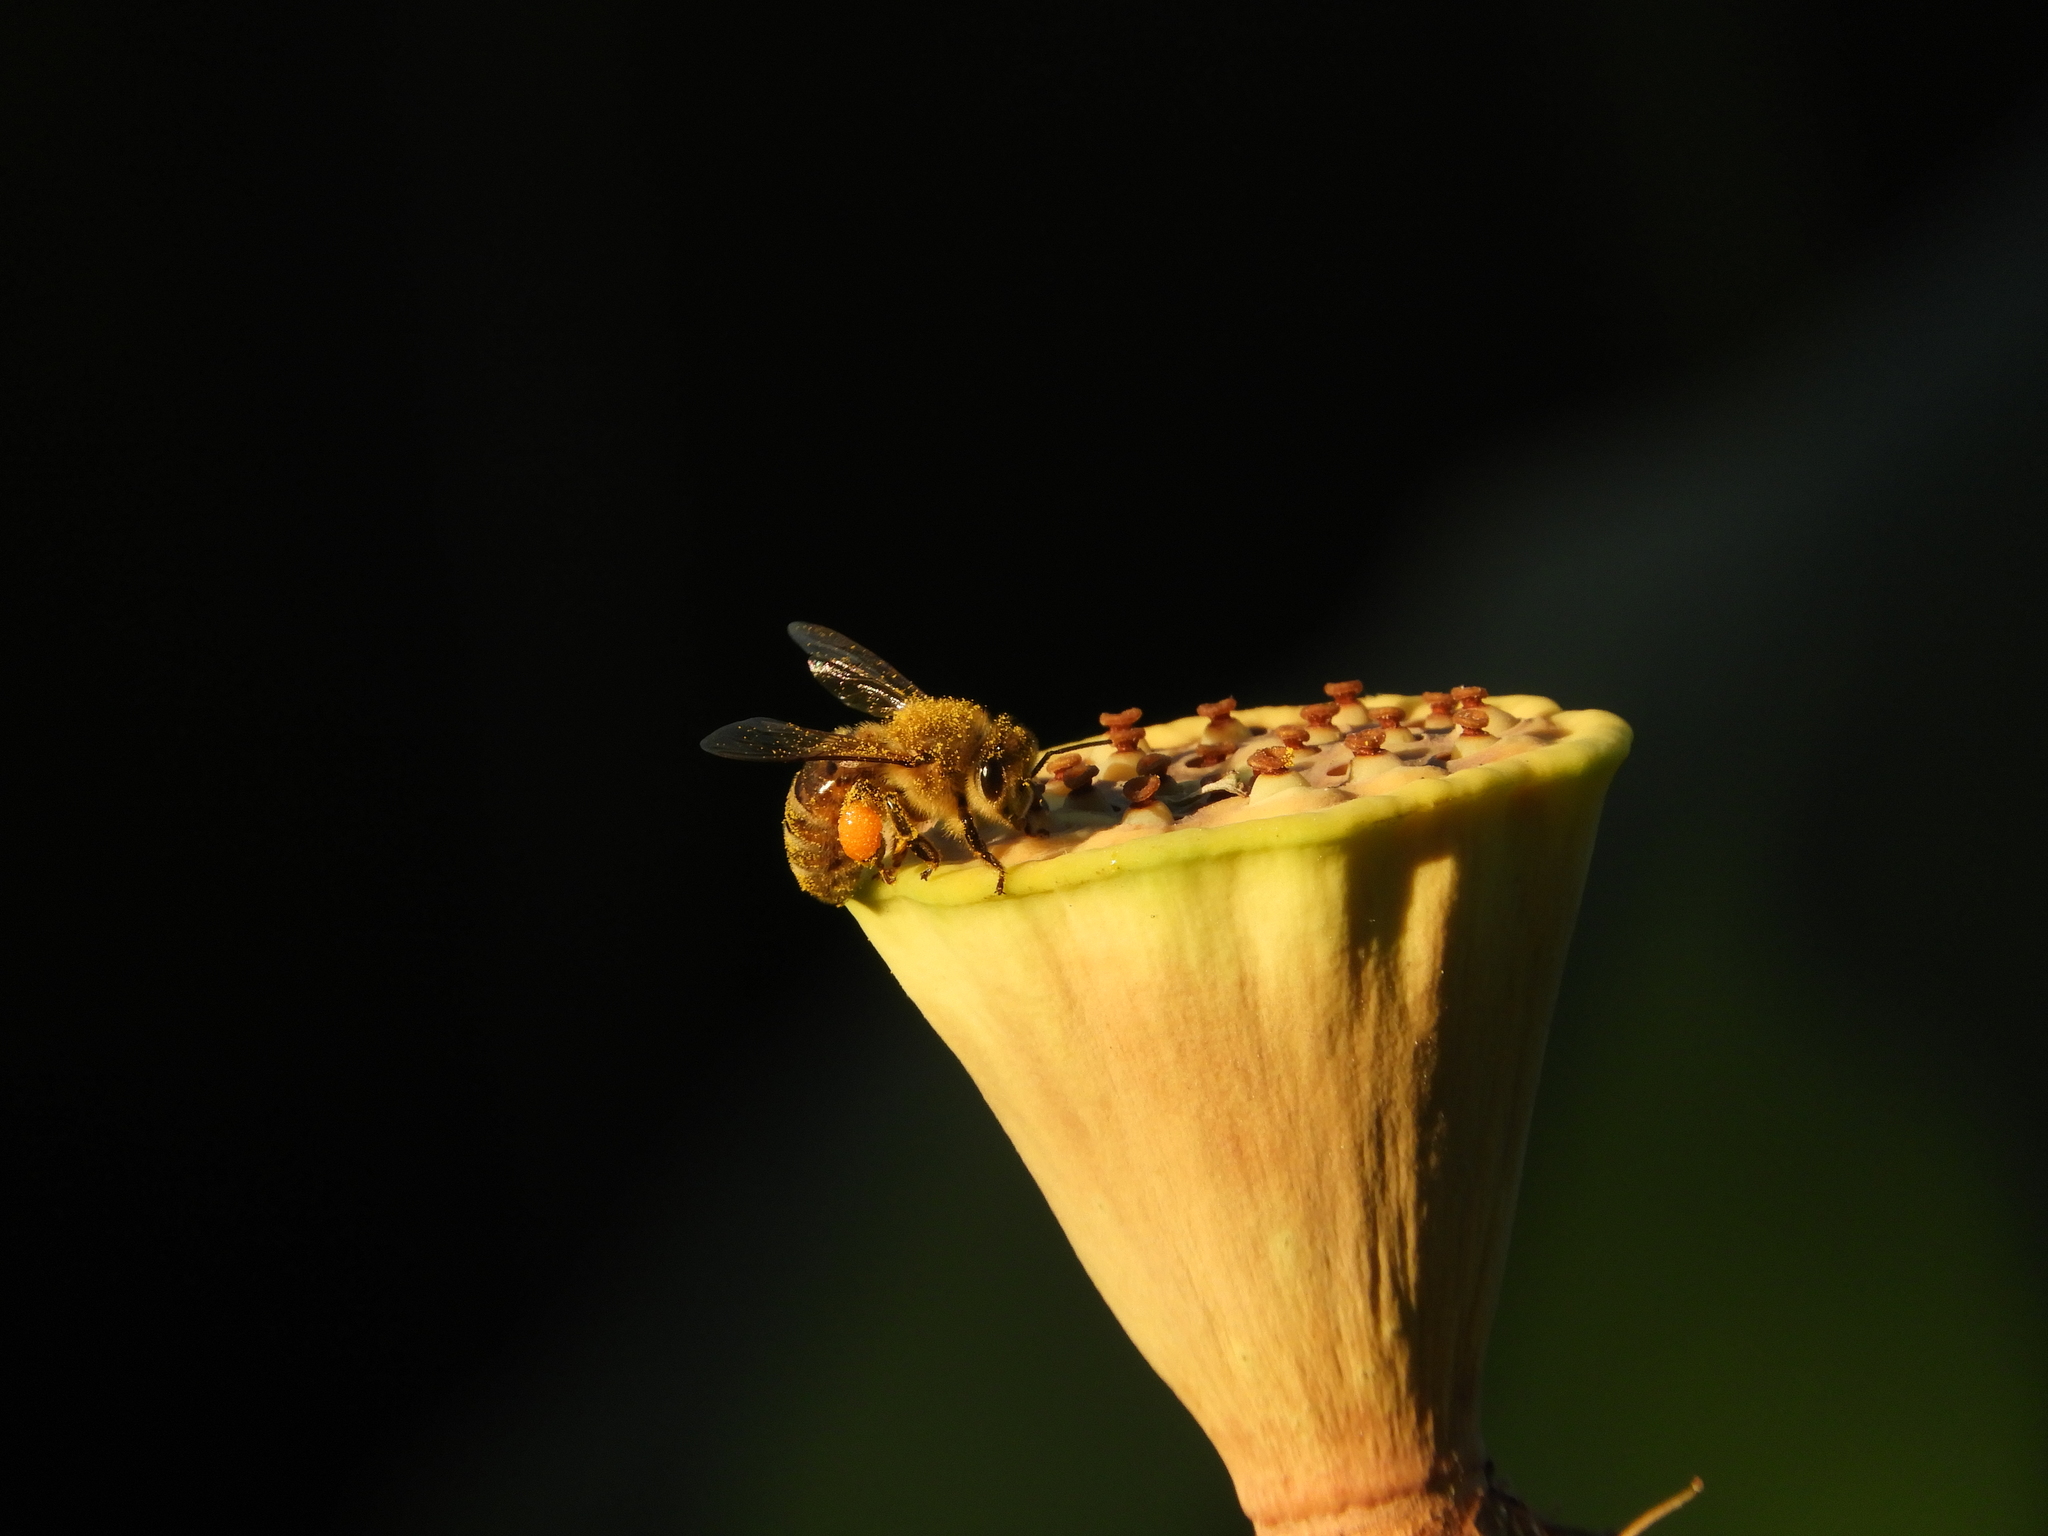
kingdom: Animalia
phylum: Arthropoda
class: Insecta
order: Hymenoptera
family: Apidae
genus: Apis
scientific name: Apis mellifera
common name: Honey bee
